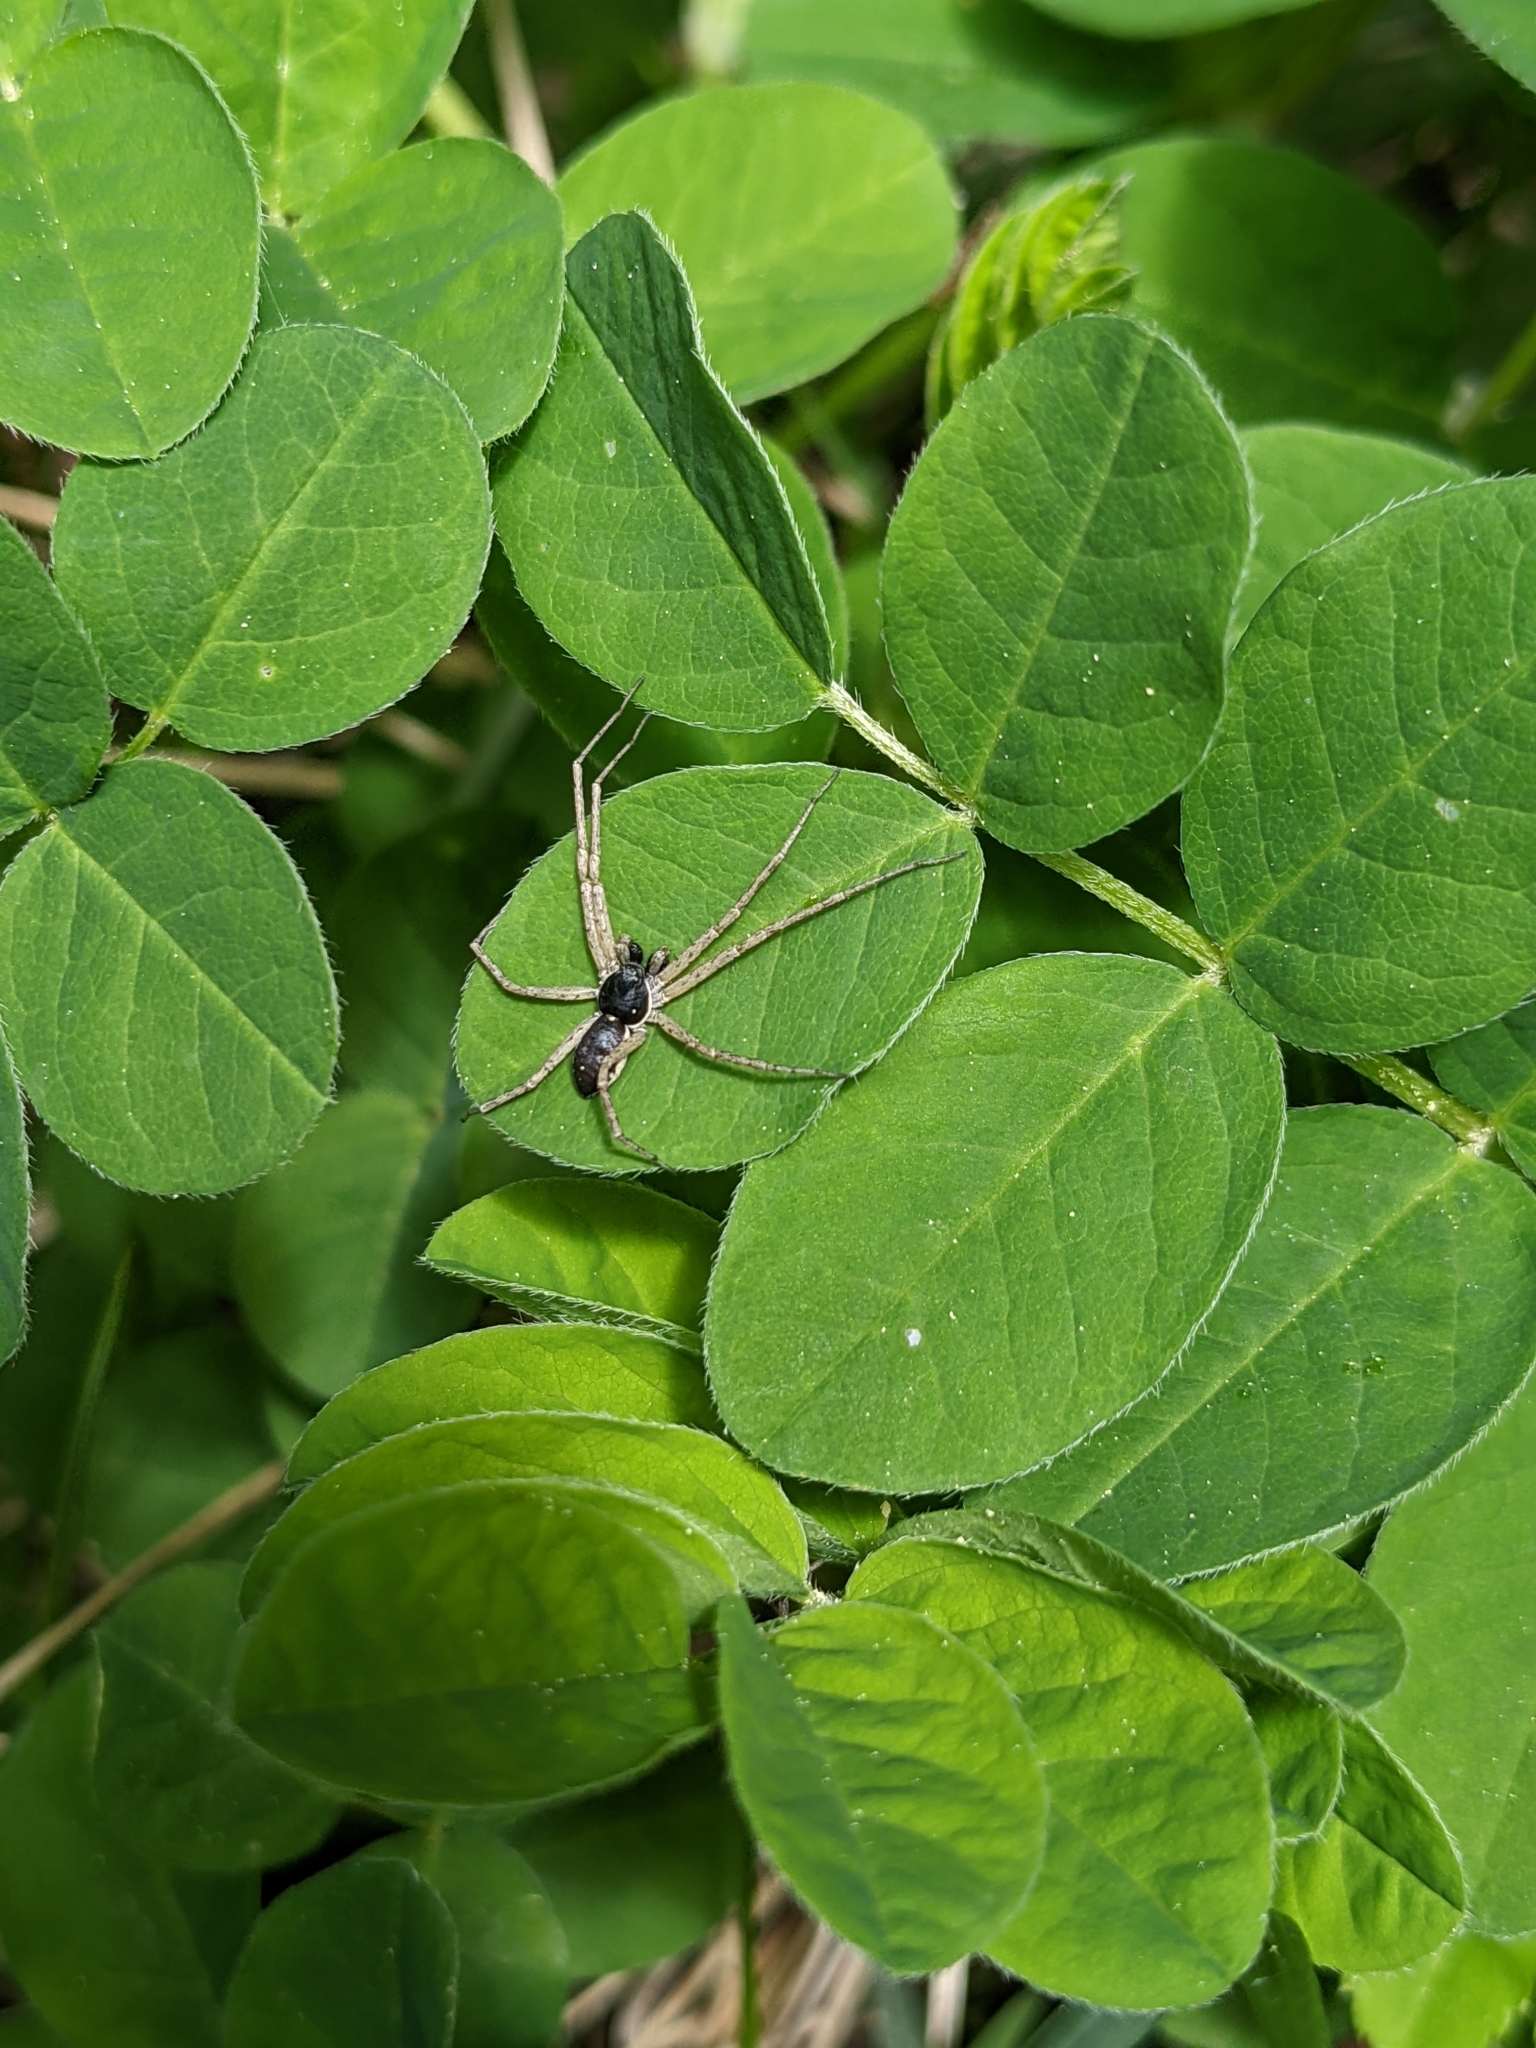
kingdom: Animalia
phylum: Arthropoda
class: Arachnida
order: Araneae
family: Philodromidae
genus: Philodromus
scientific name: Philodromus dispar
